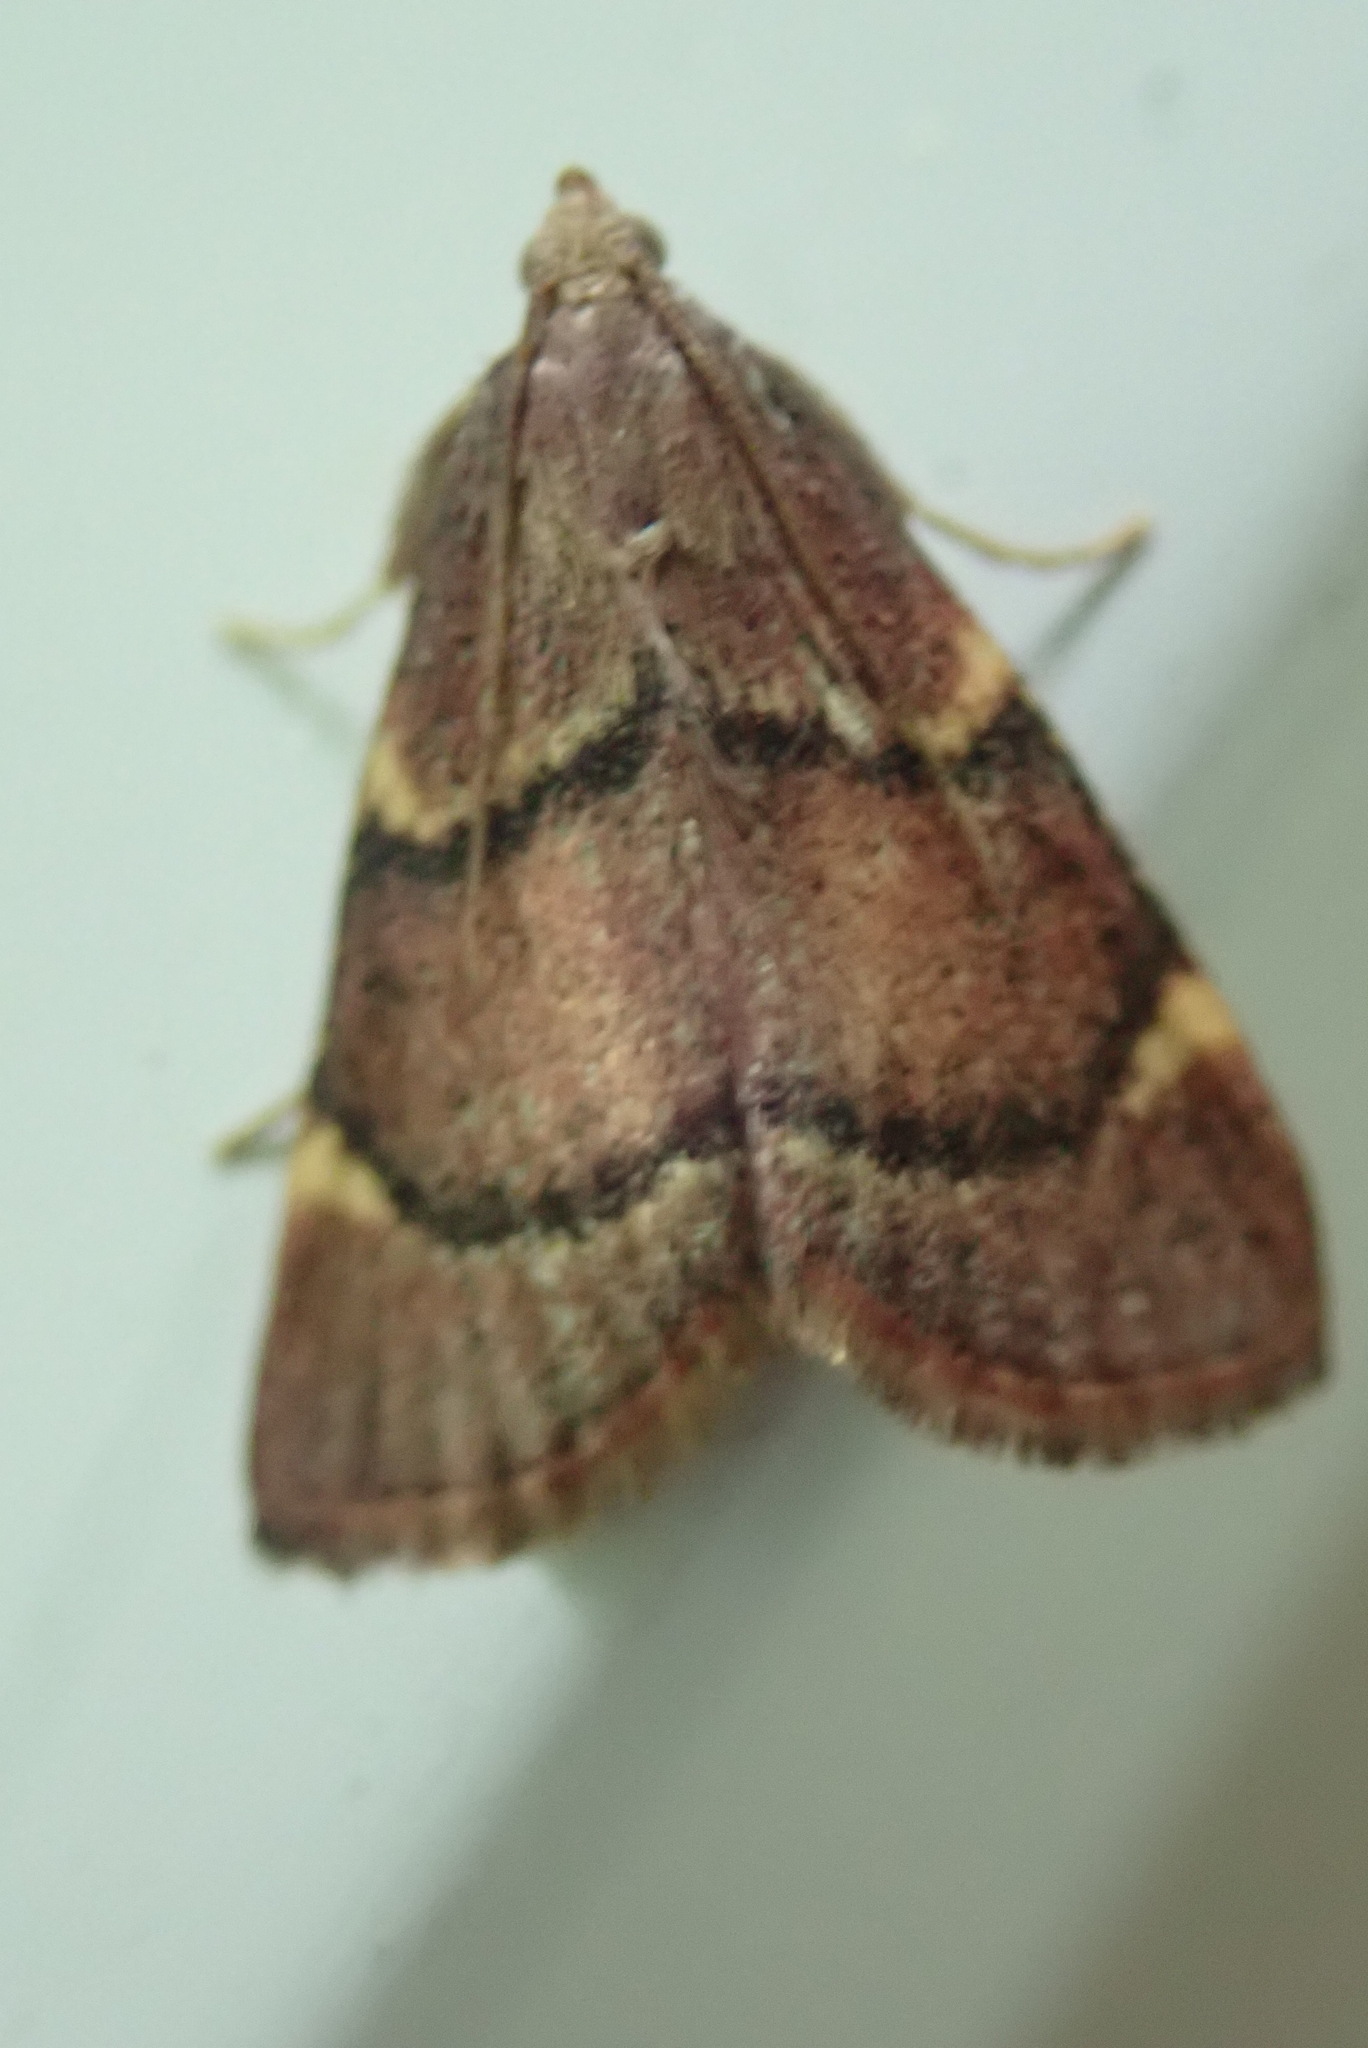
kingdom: Animalia
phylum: Arthropoda
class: Insecta
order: Lepidoptera
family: Pyralidae
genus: Hypsopygia
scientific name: Hypsopygia thymetusalis
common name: Spruce needleworm moth
